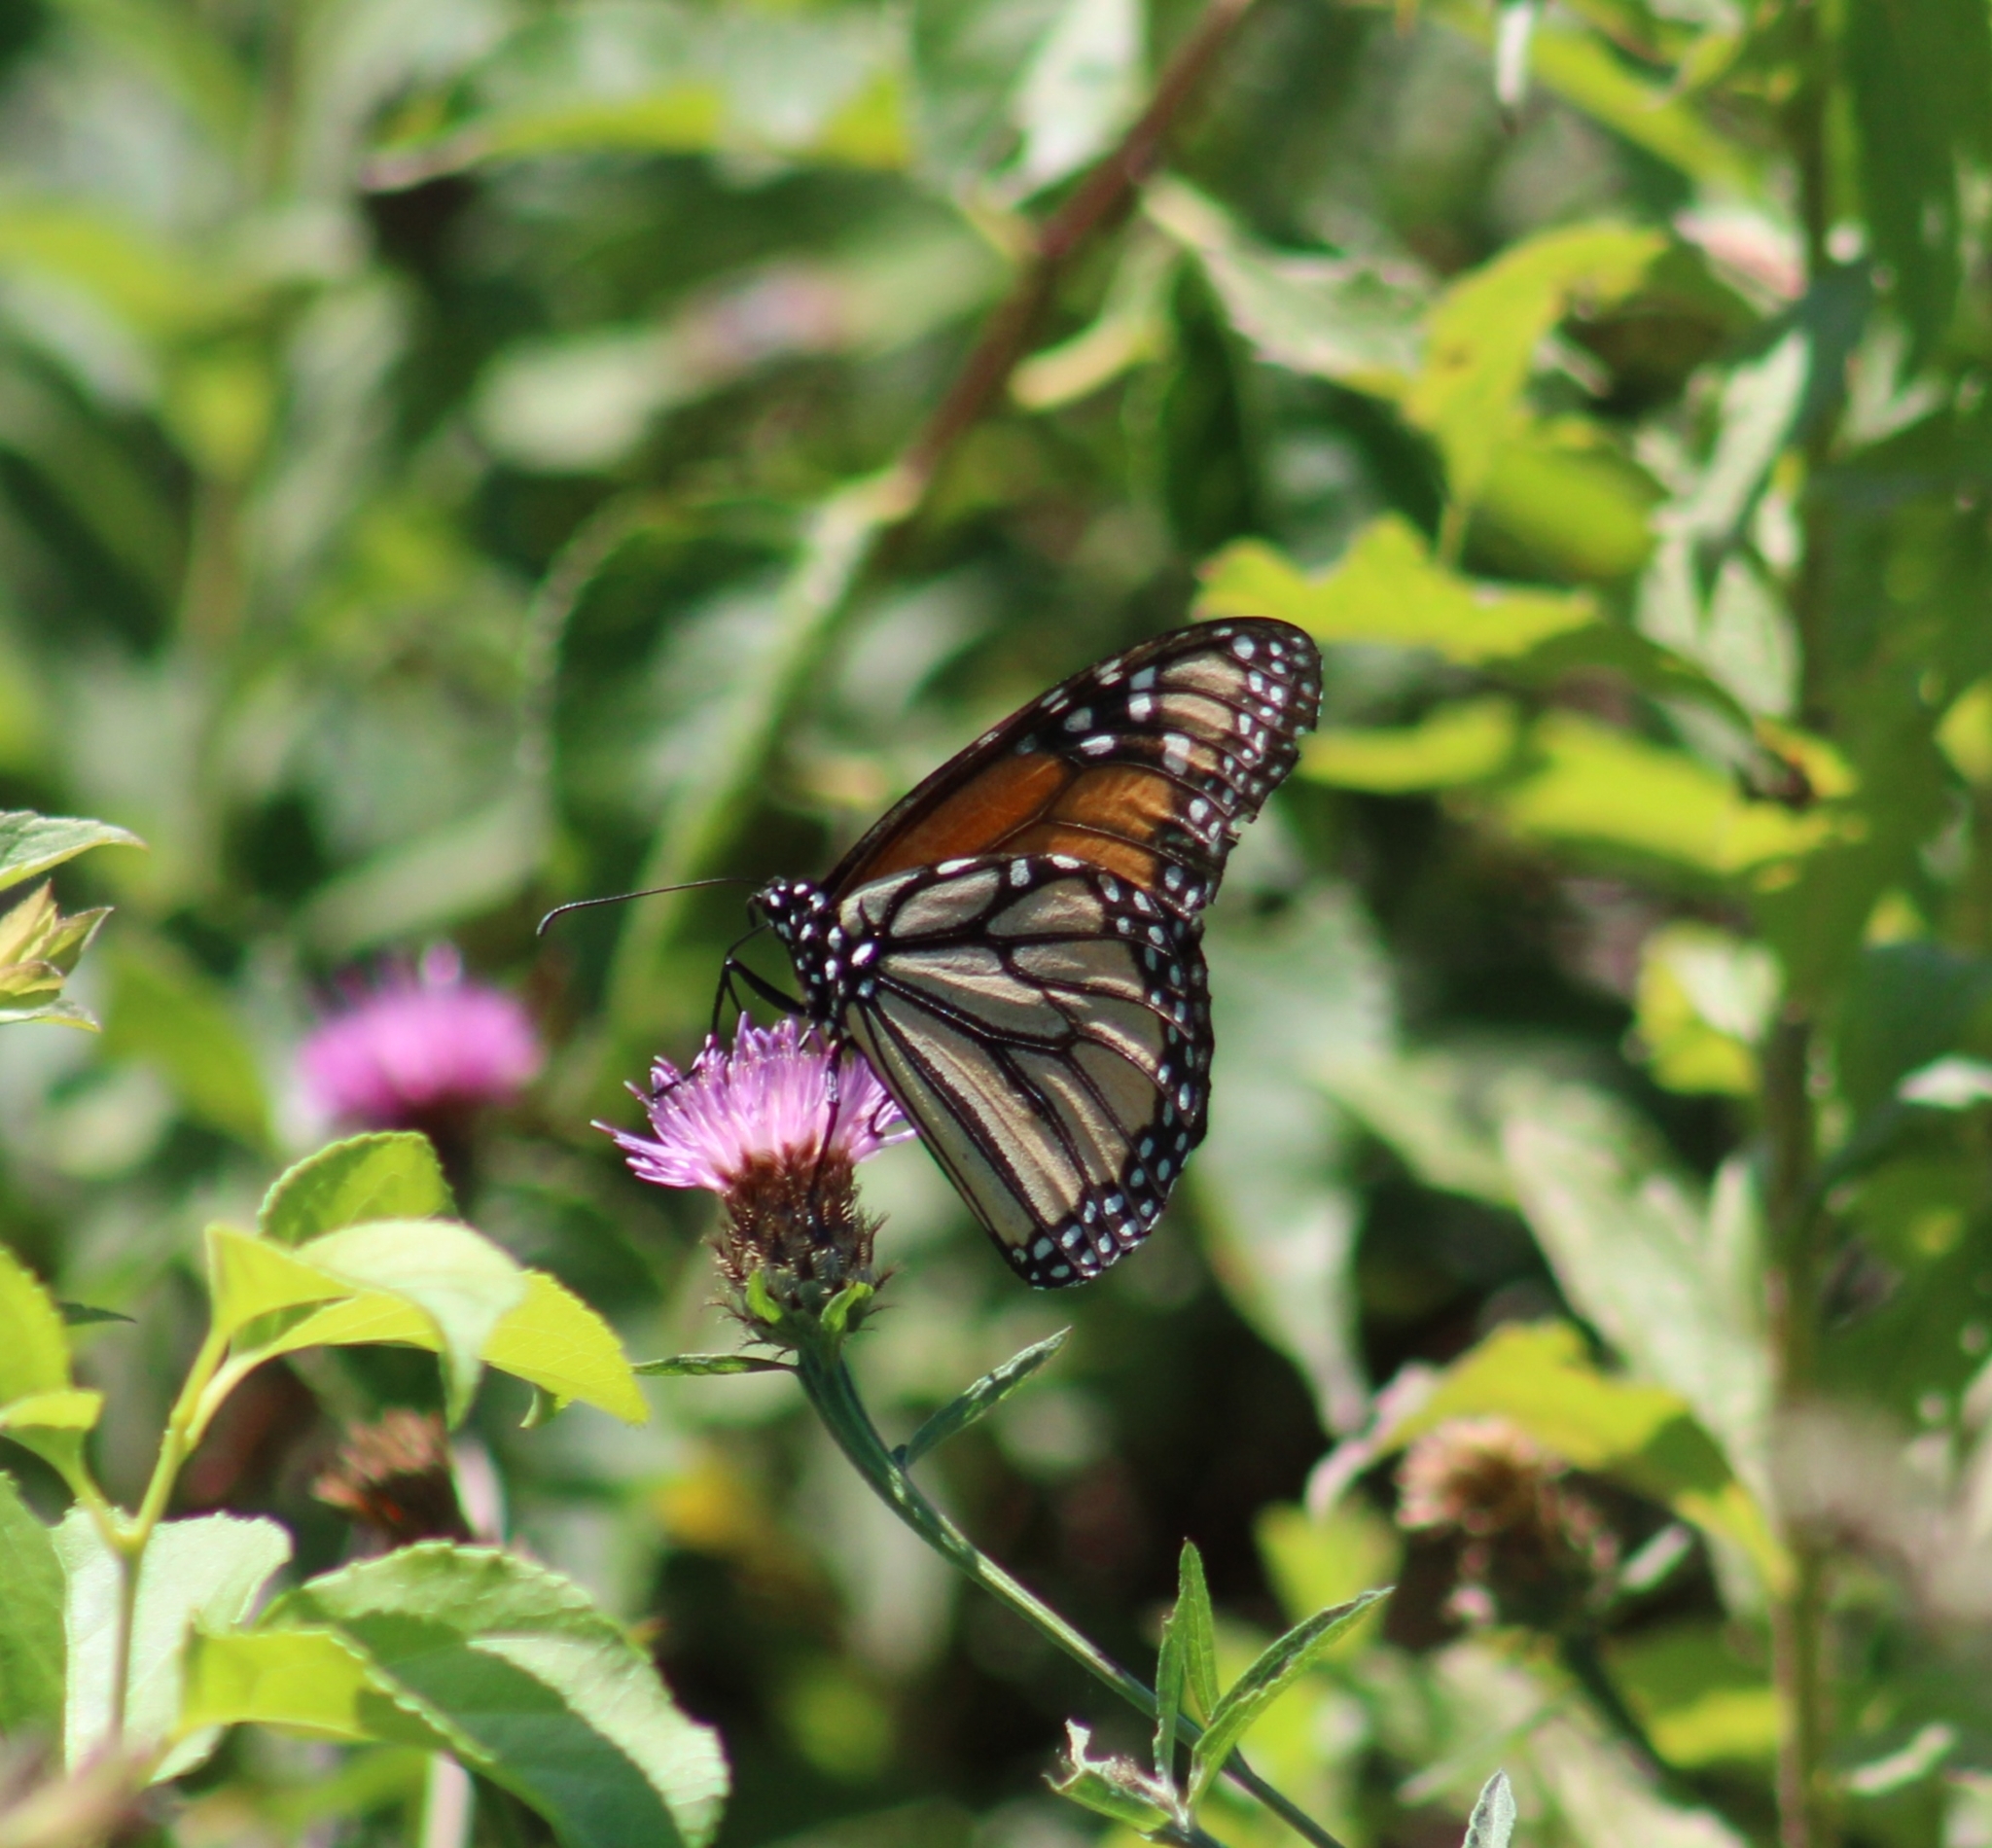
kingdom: Animalia
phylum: Arthropoda
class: Insecta
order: Lepidoptera
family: Nymphalidae
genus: Danaus
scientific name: Danaus plexippus
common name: Monarch
